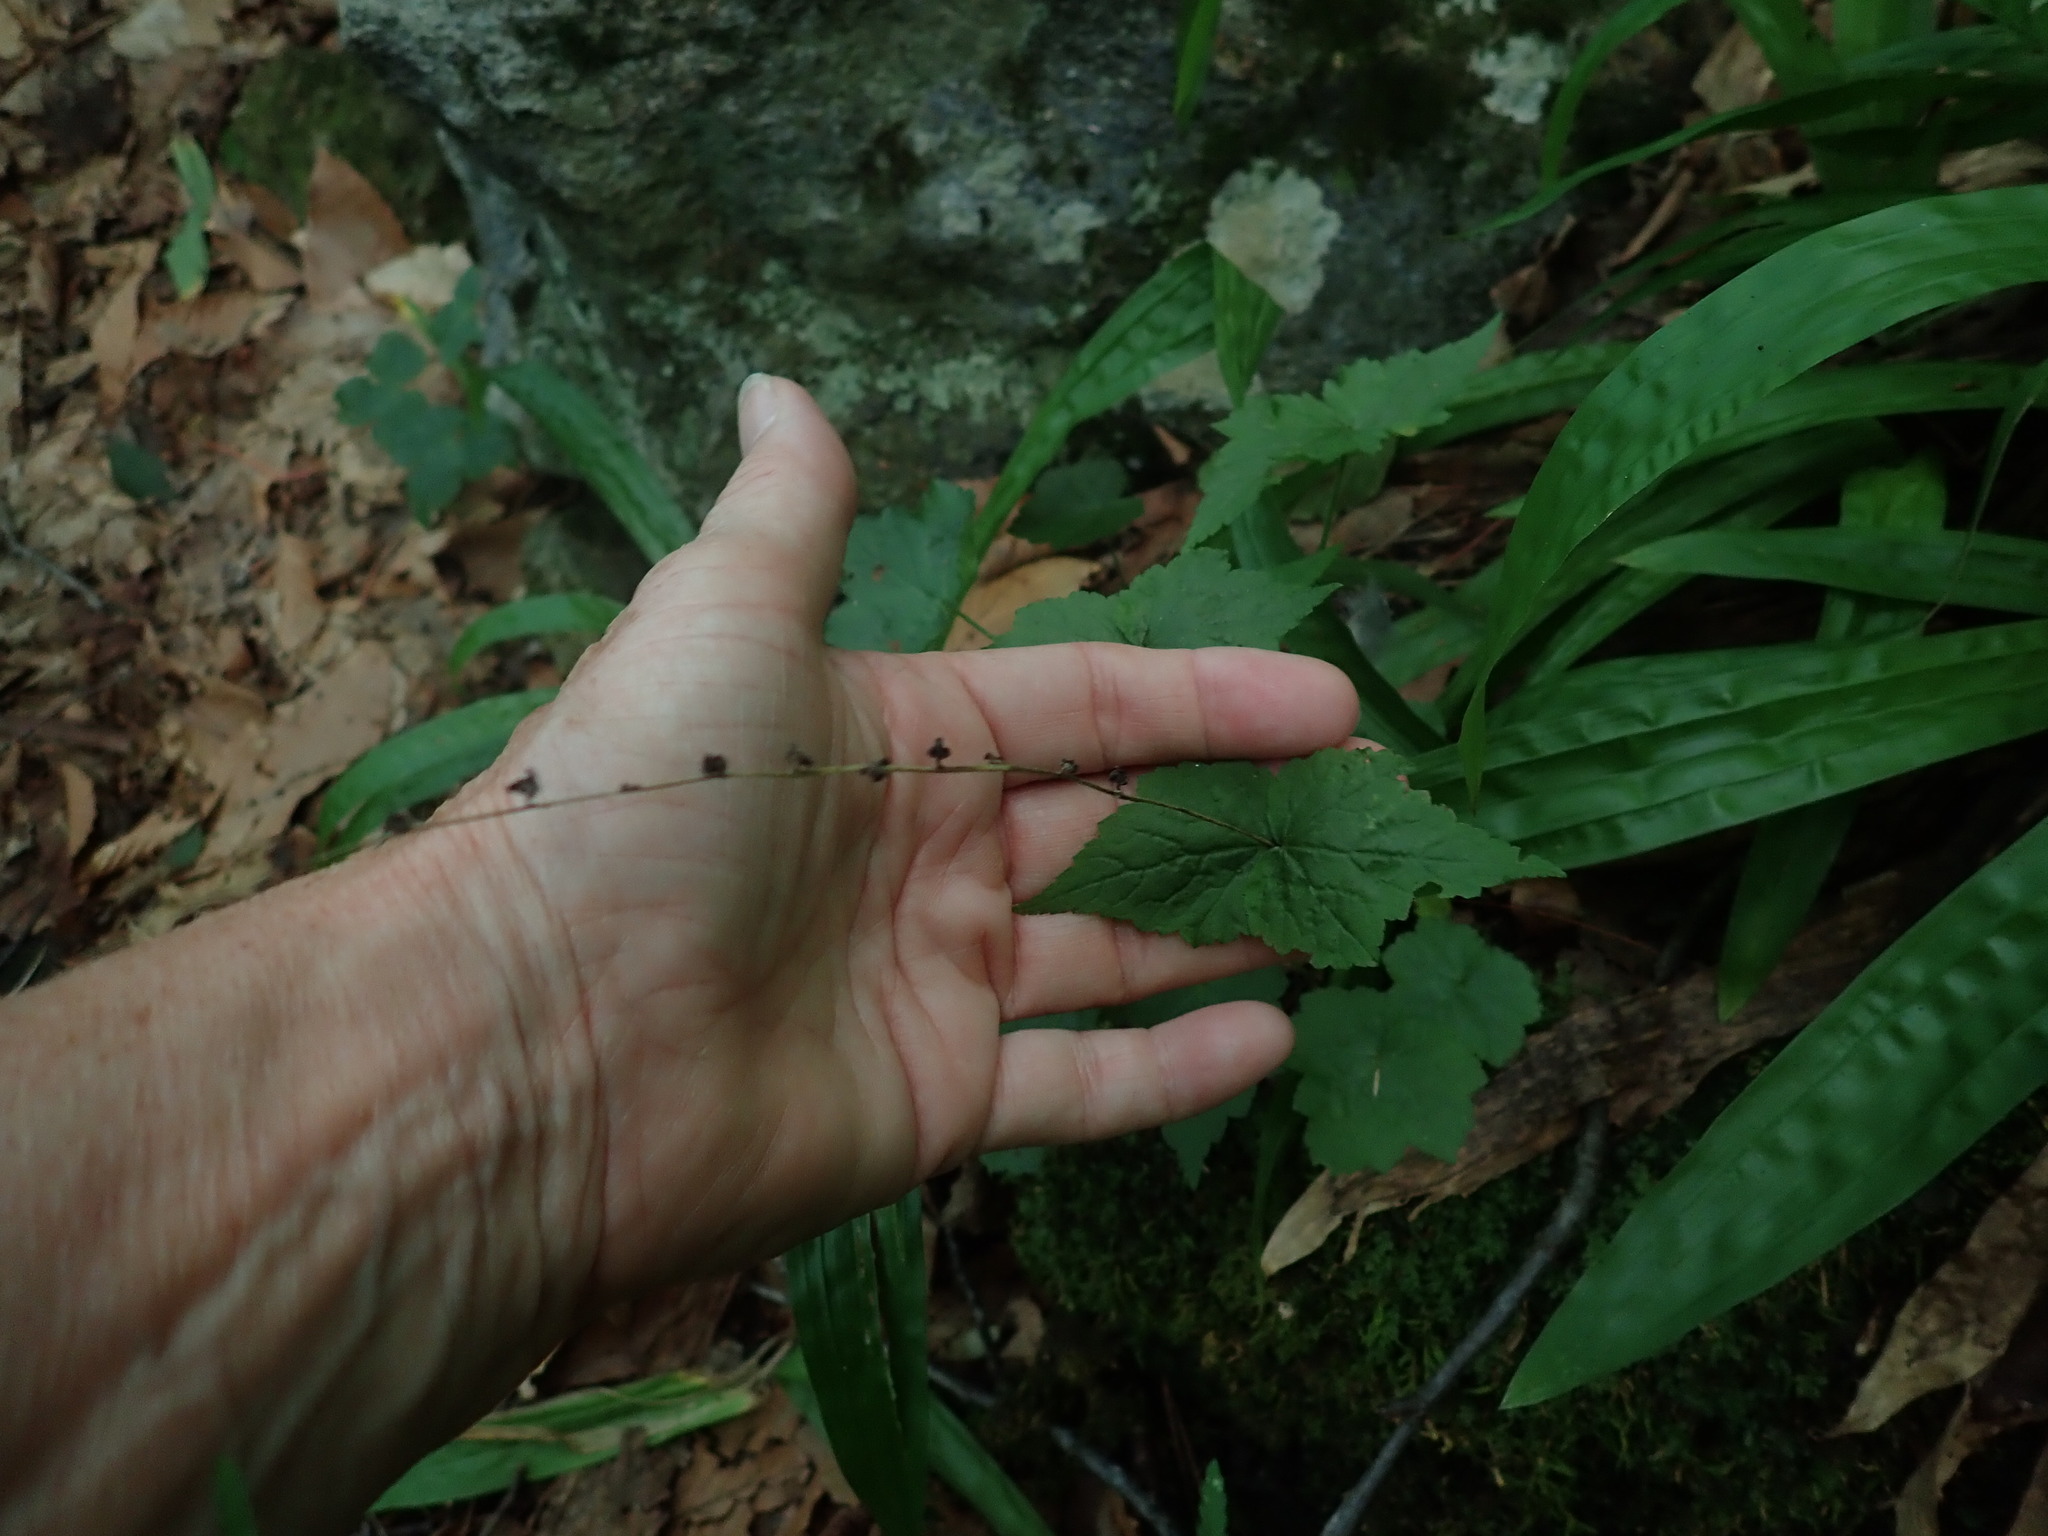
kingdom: Plantae
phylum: Tracheophyta
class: Magnoliopsida
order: Saxifragales
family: Saxifragaceae
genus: Mitella
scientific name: Mitella diphylla
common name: Coolwort
